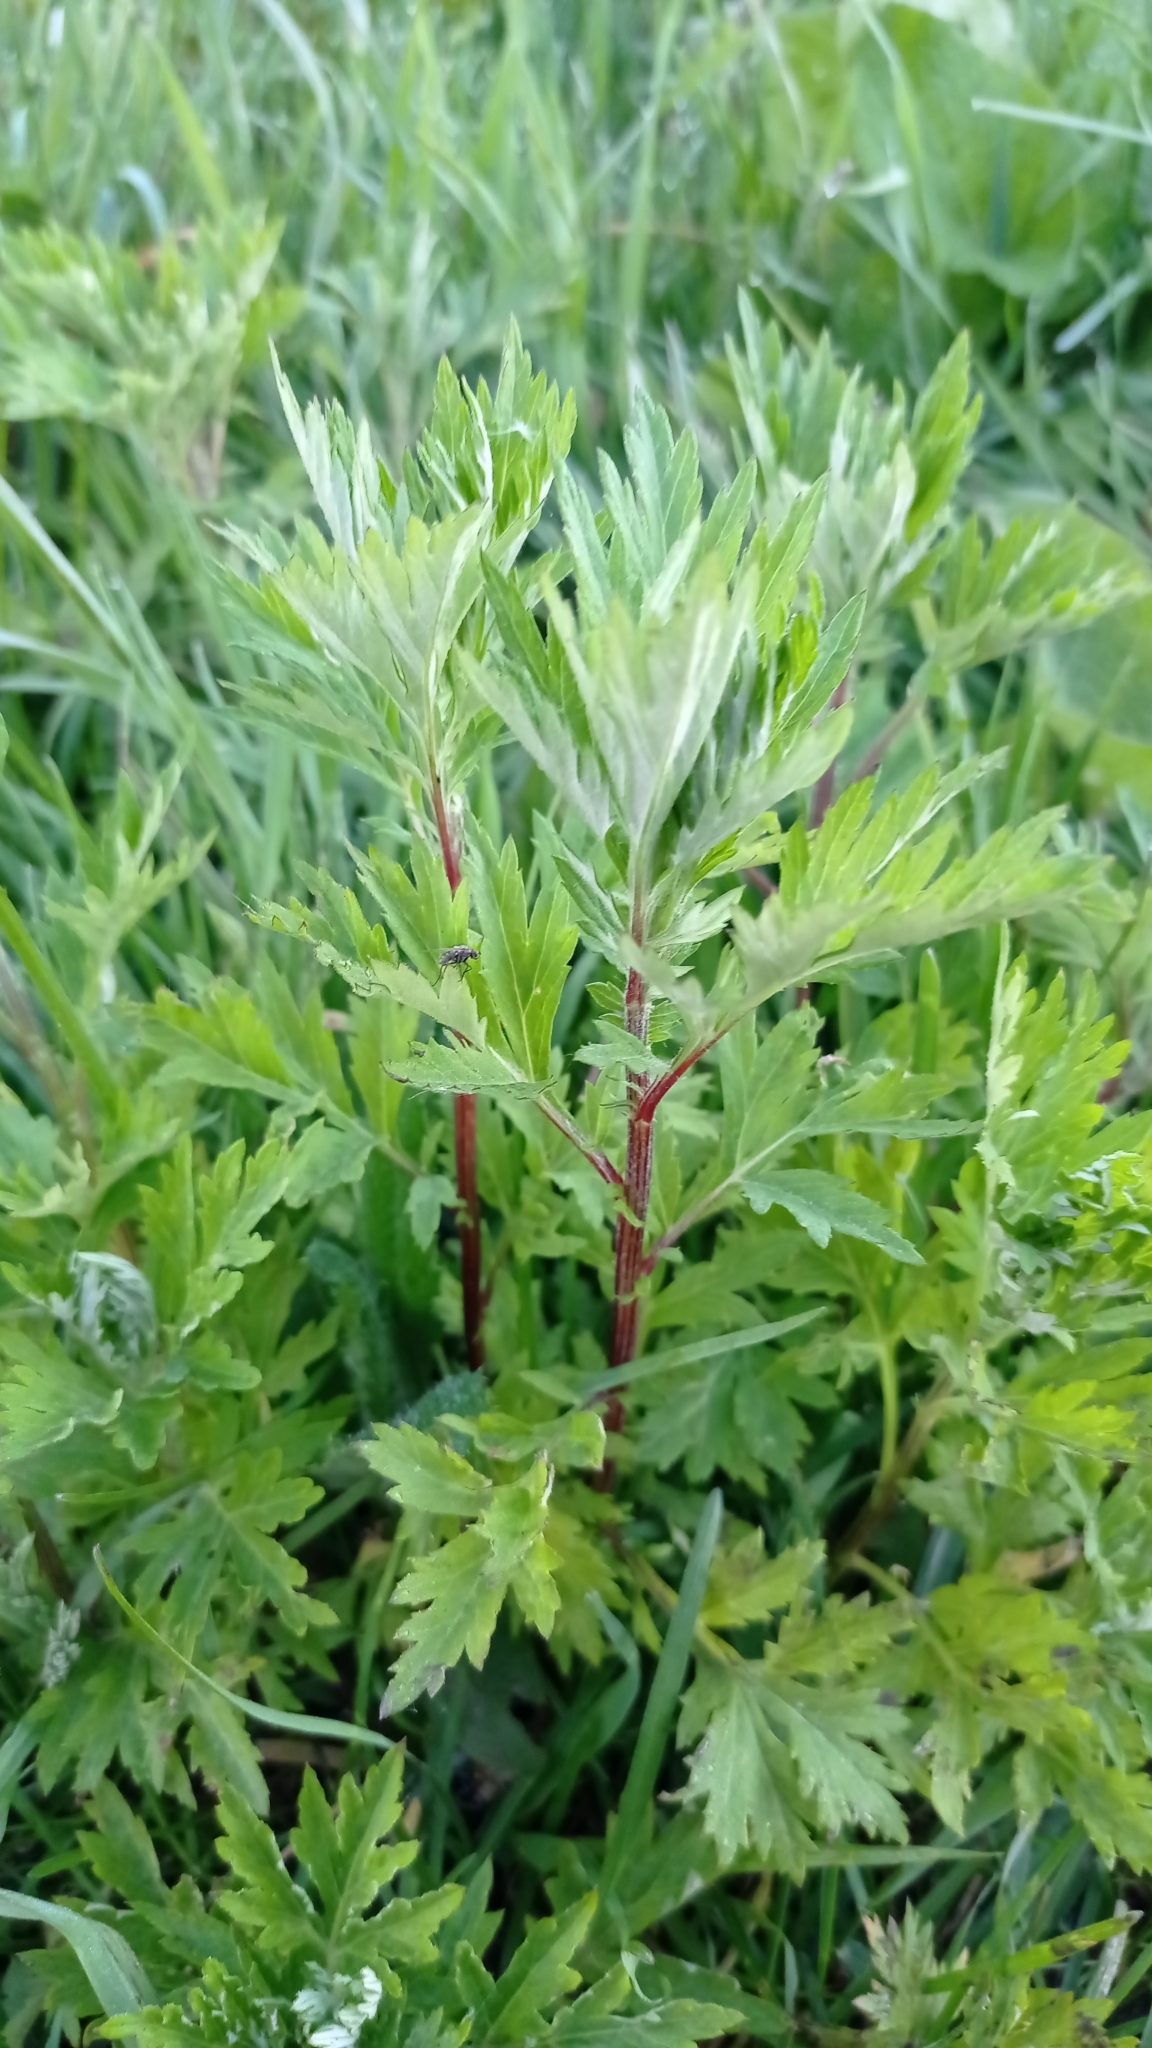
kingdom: Plantae
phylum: Tracheophyta
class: Magnoliopsida
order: Asterales
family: Asteraceae
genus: Artemisia
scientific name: Artemisia vulgaris
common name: Mugwort
